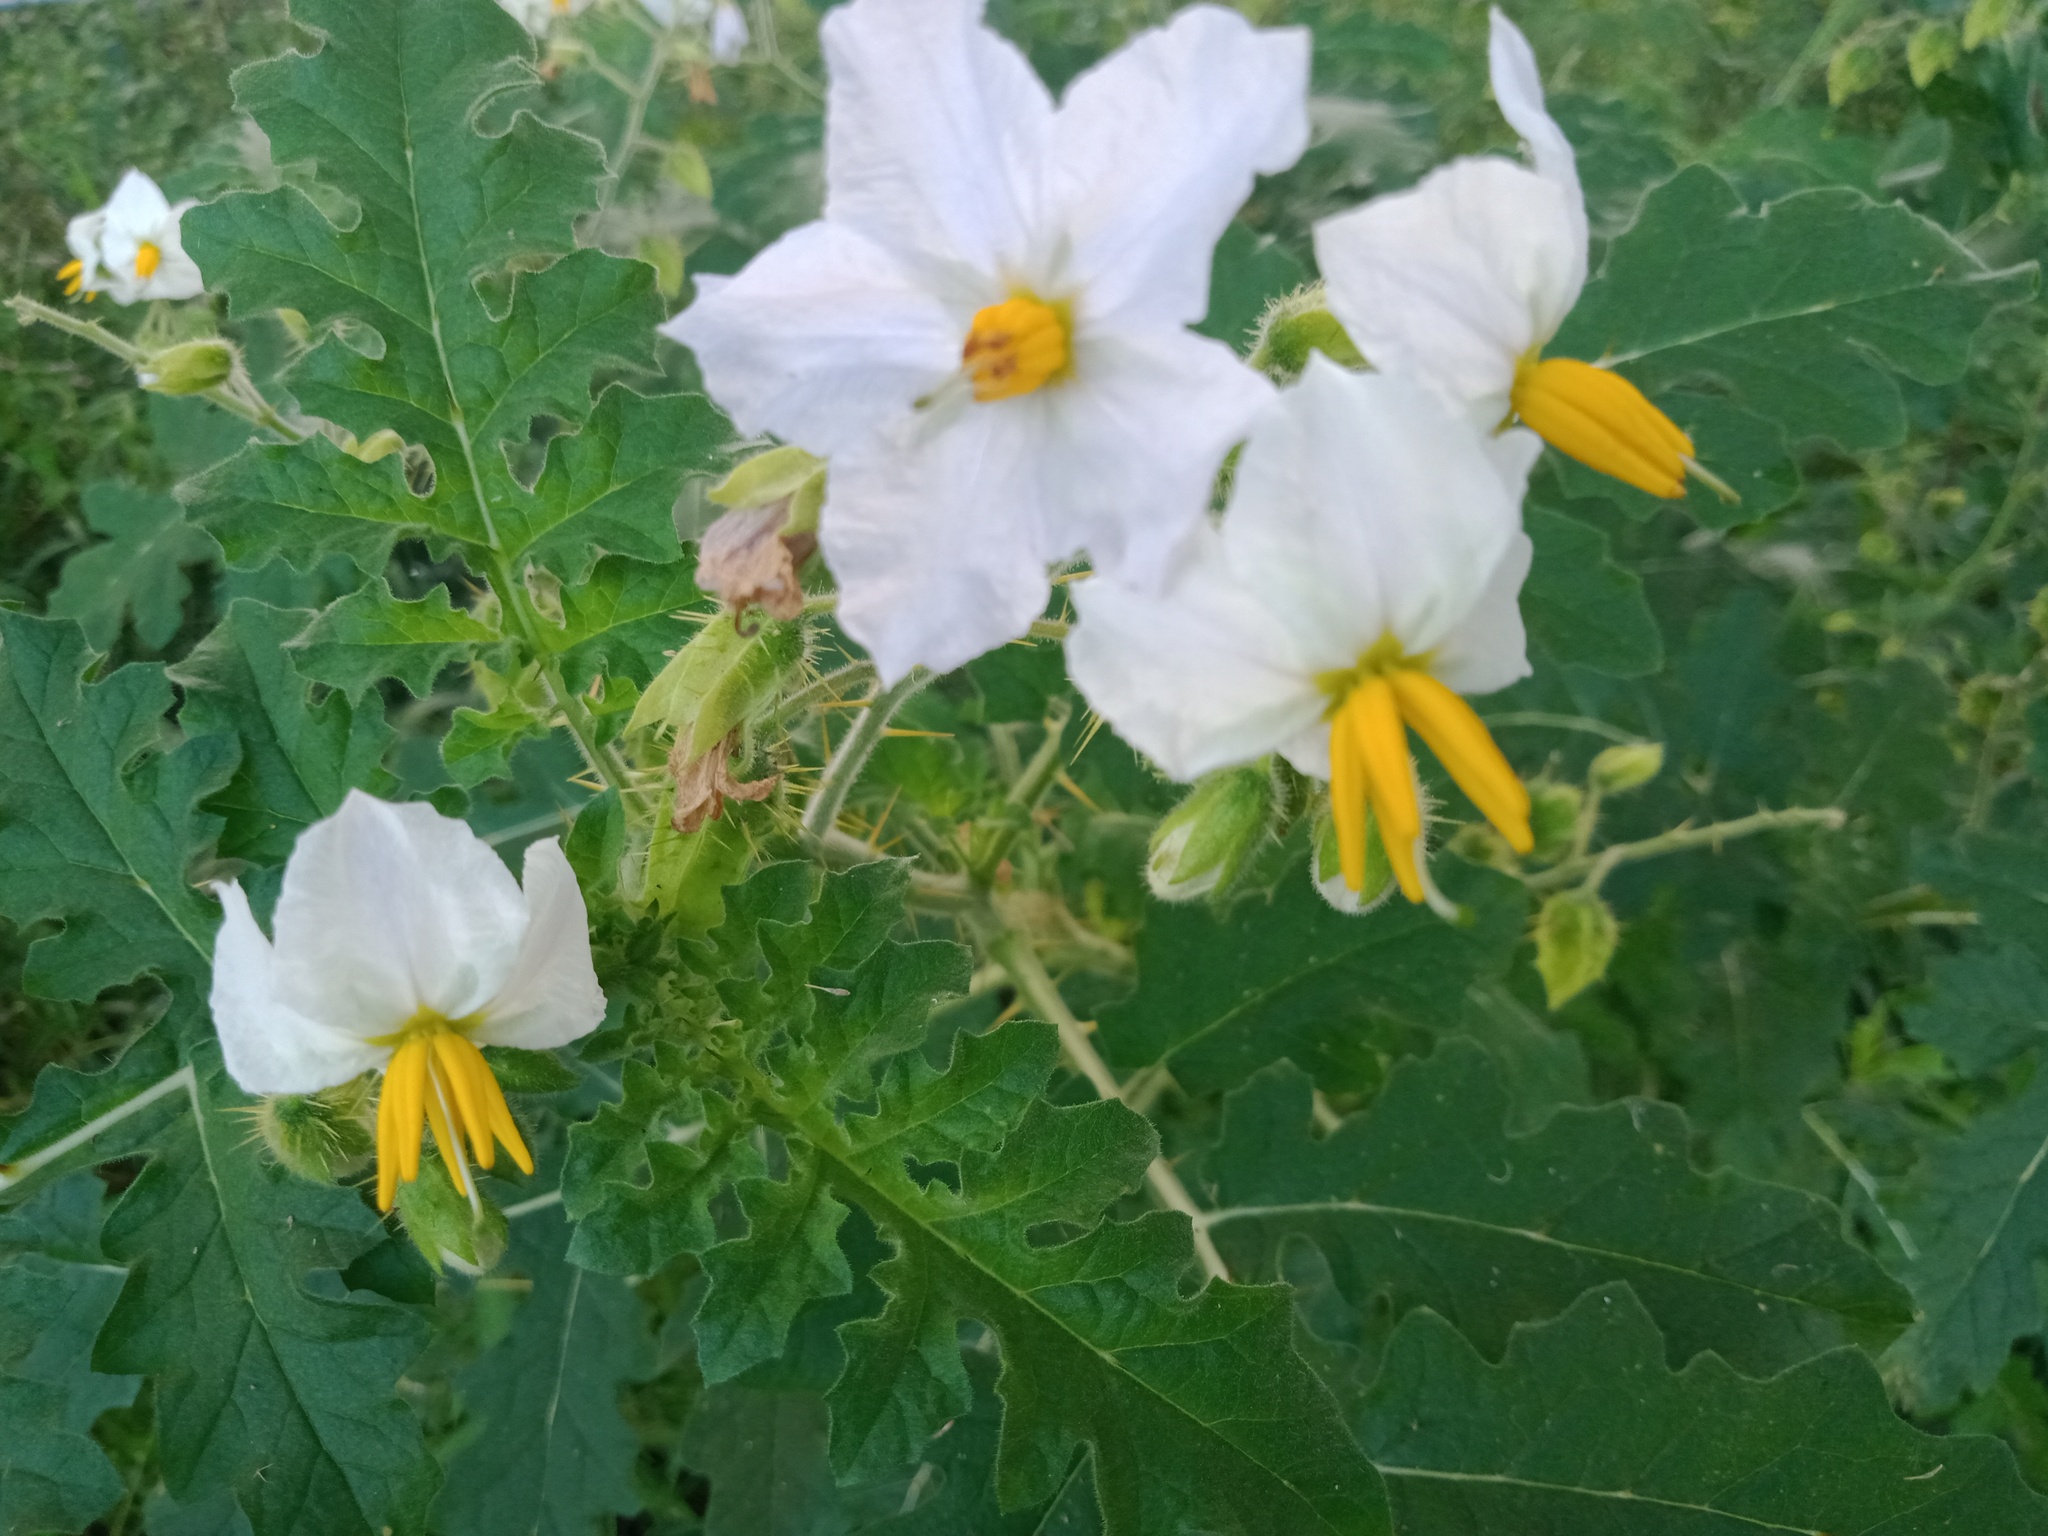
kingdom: Plantae
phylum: Tracheophyta
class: Magnoliopsida
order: Solanales
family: Solanaceae
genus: Solanum
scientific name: Solanum sisymbriifolium
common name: Red buffalo-bur
